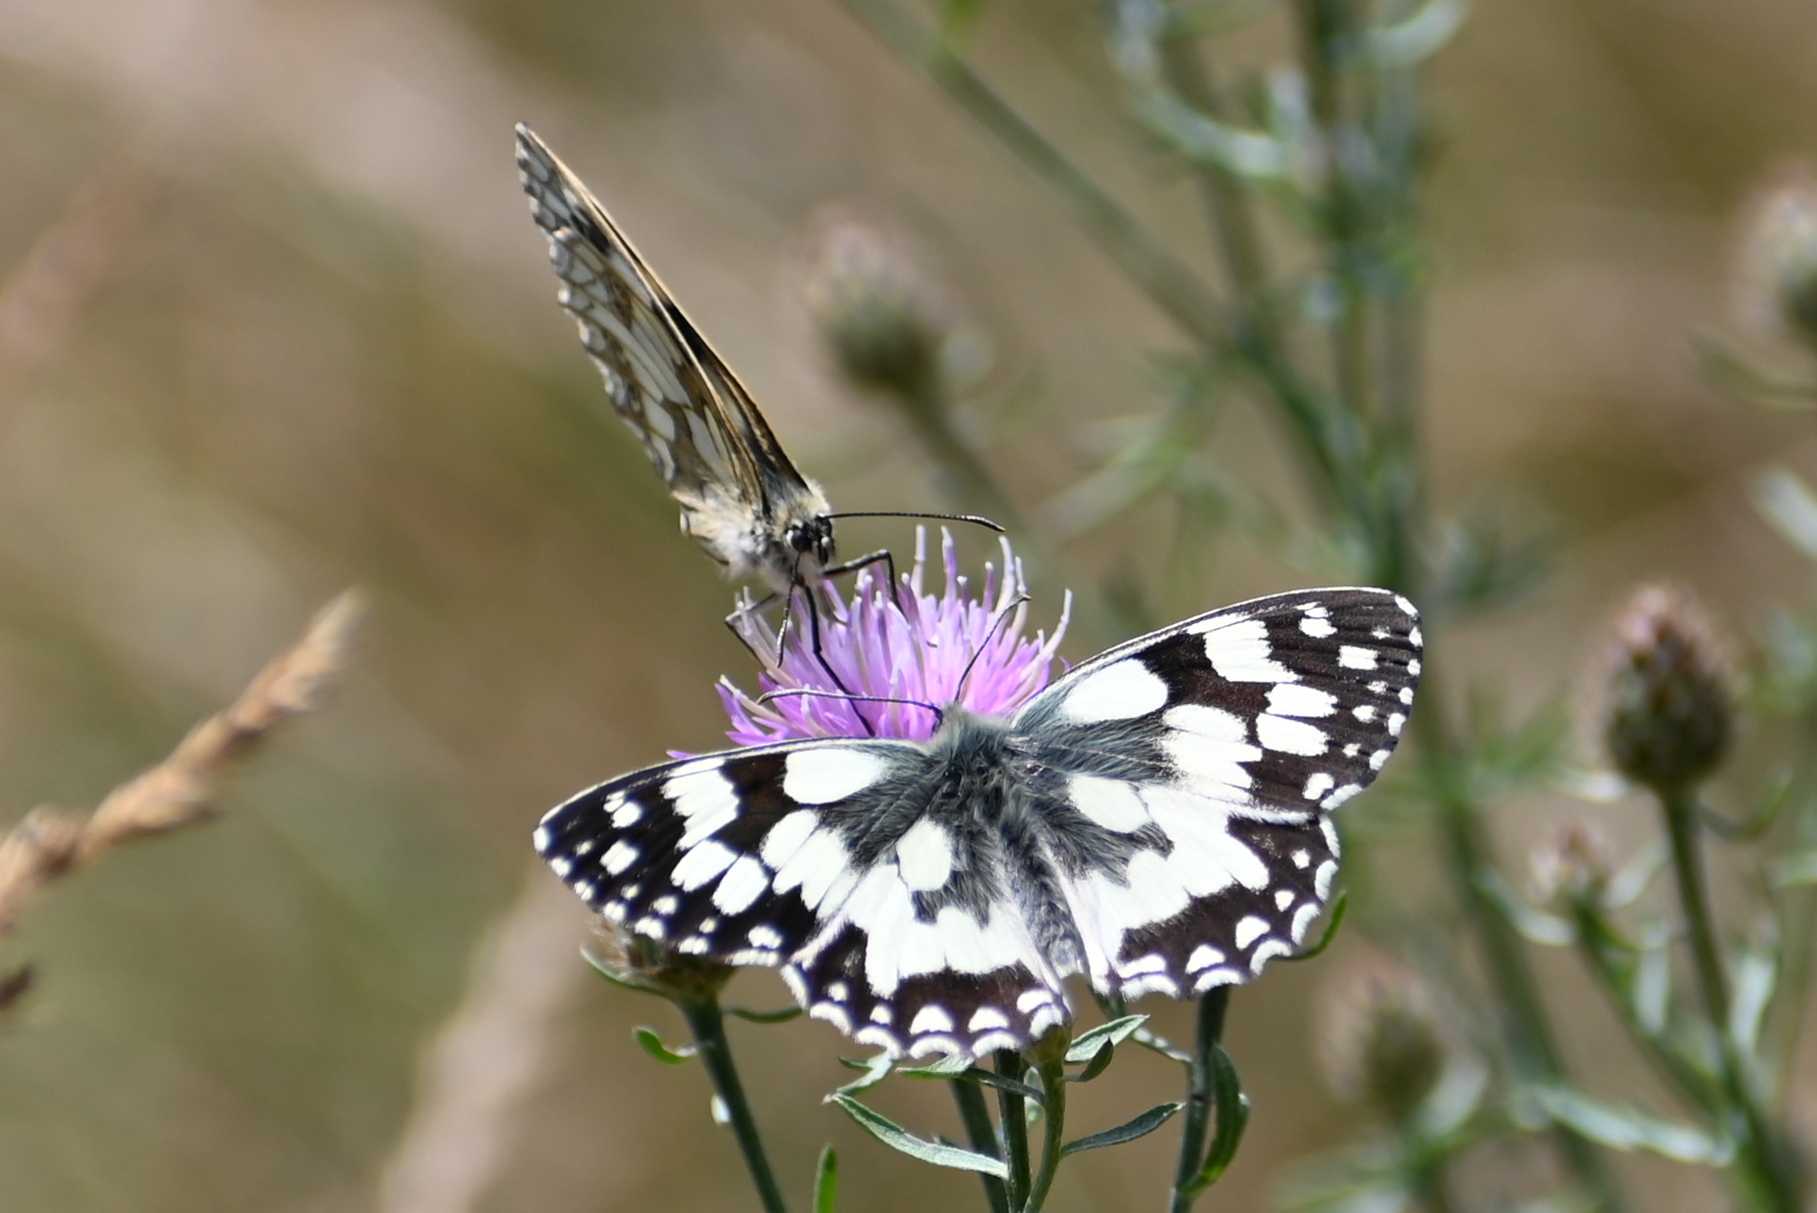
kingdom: Animalia
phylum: Arthropoda
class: Insecta
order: Lepidoptera
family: Nymphalidae
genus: Melanargia
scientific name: Melanargia galathea
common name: Marbled white
